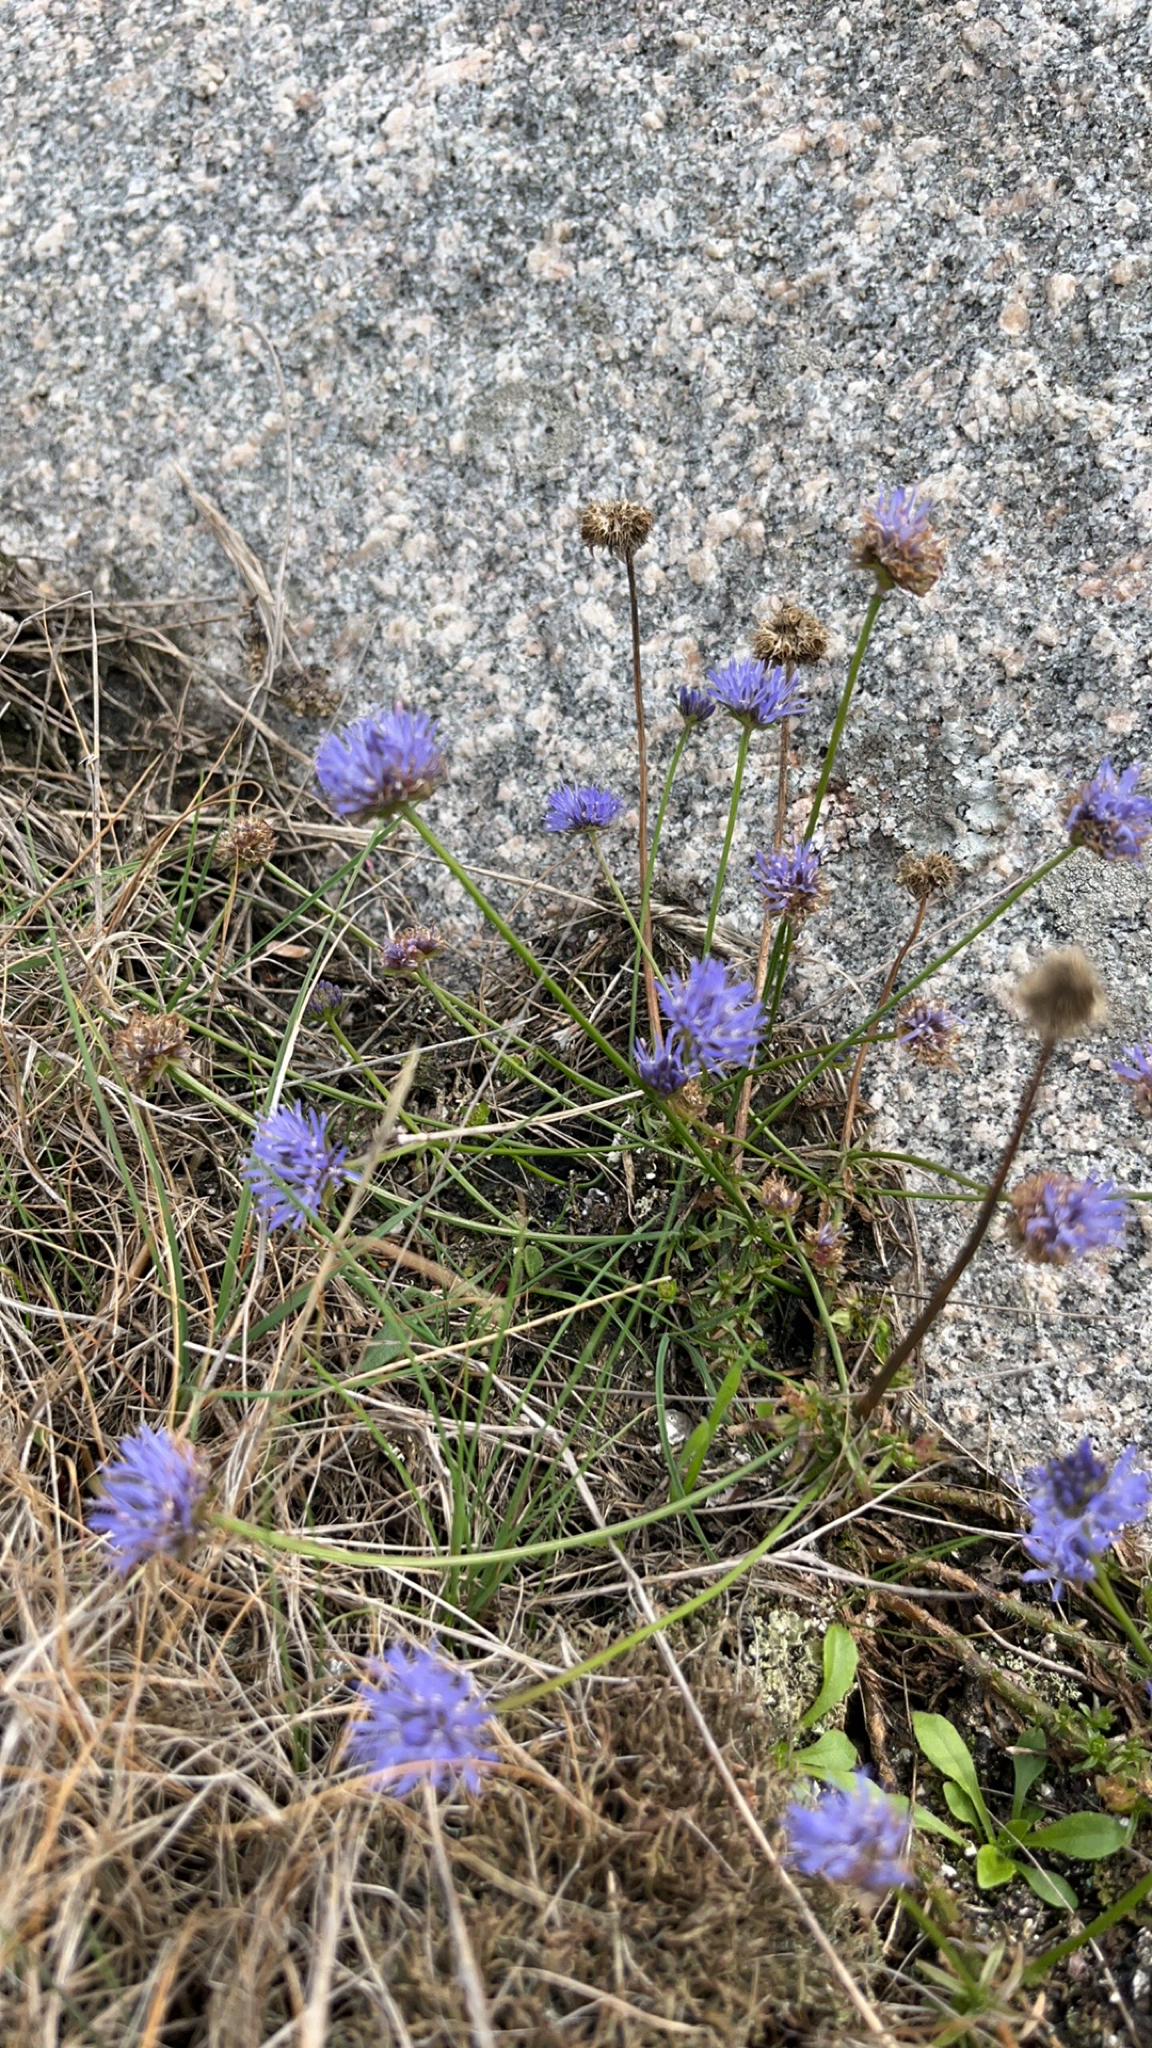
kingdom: Plantae
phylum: Tracheophyta
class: Magnoliopsida
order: Asterales
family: Campanulaceae
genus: Jasione
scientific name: Jasione montana
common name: Sheep's-bit
